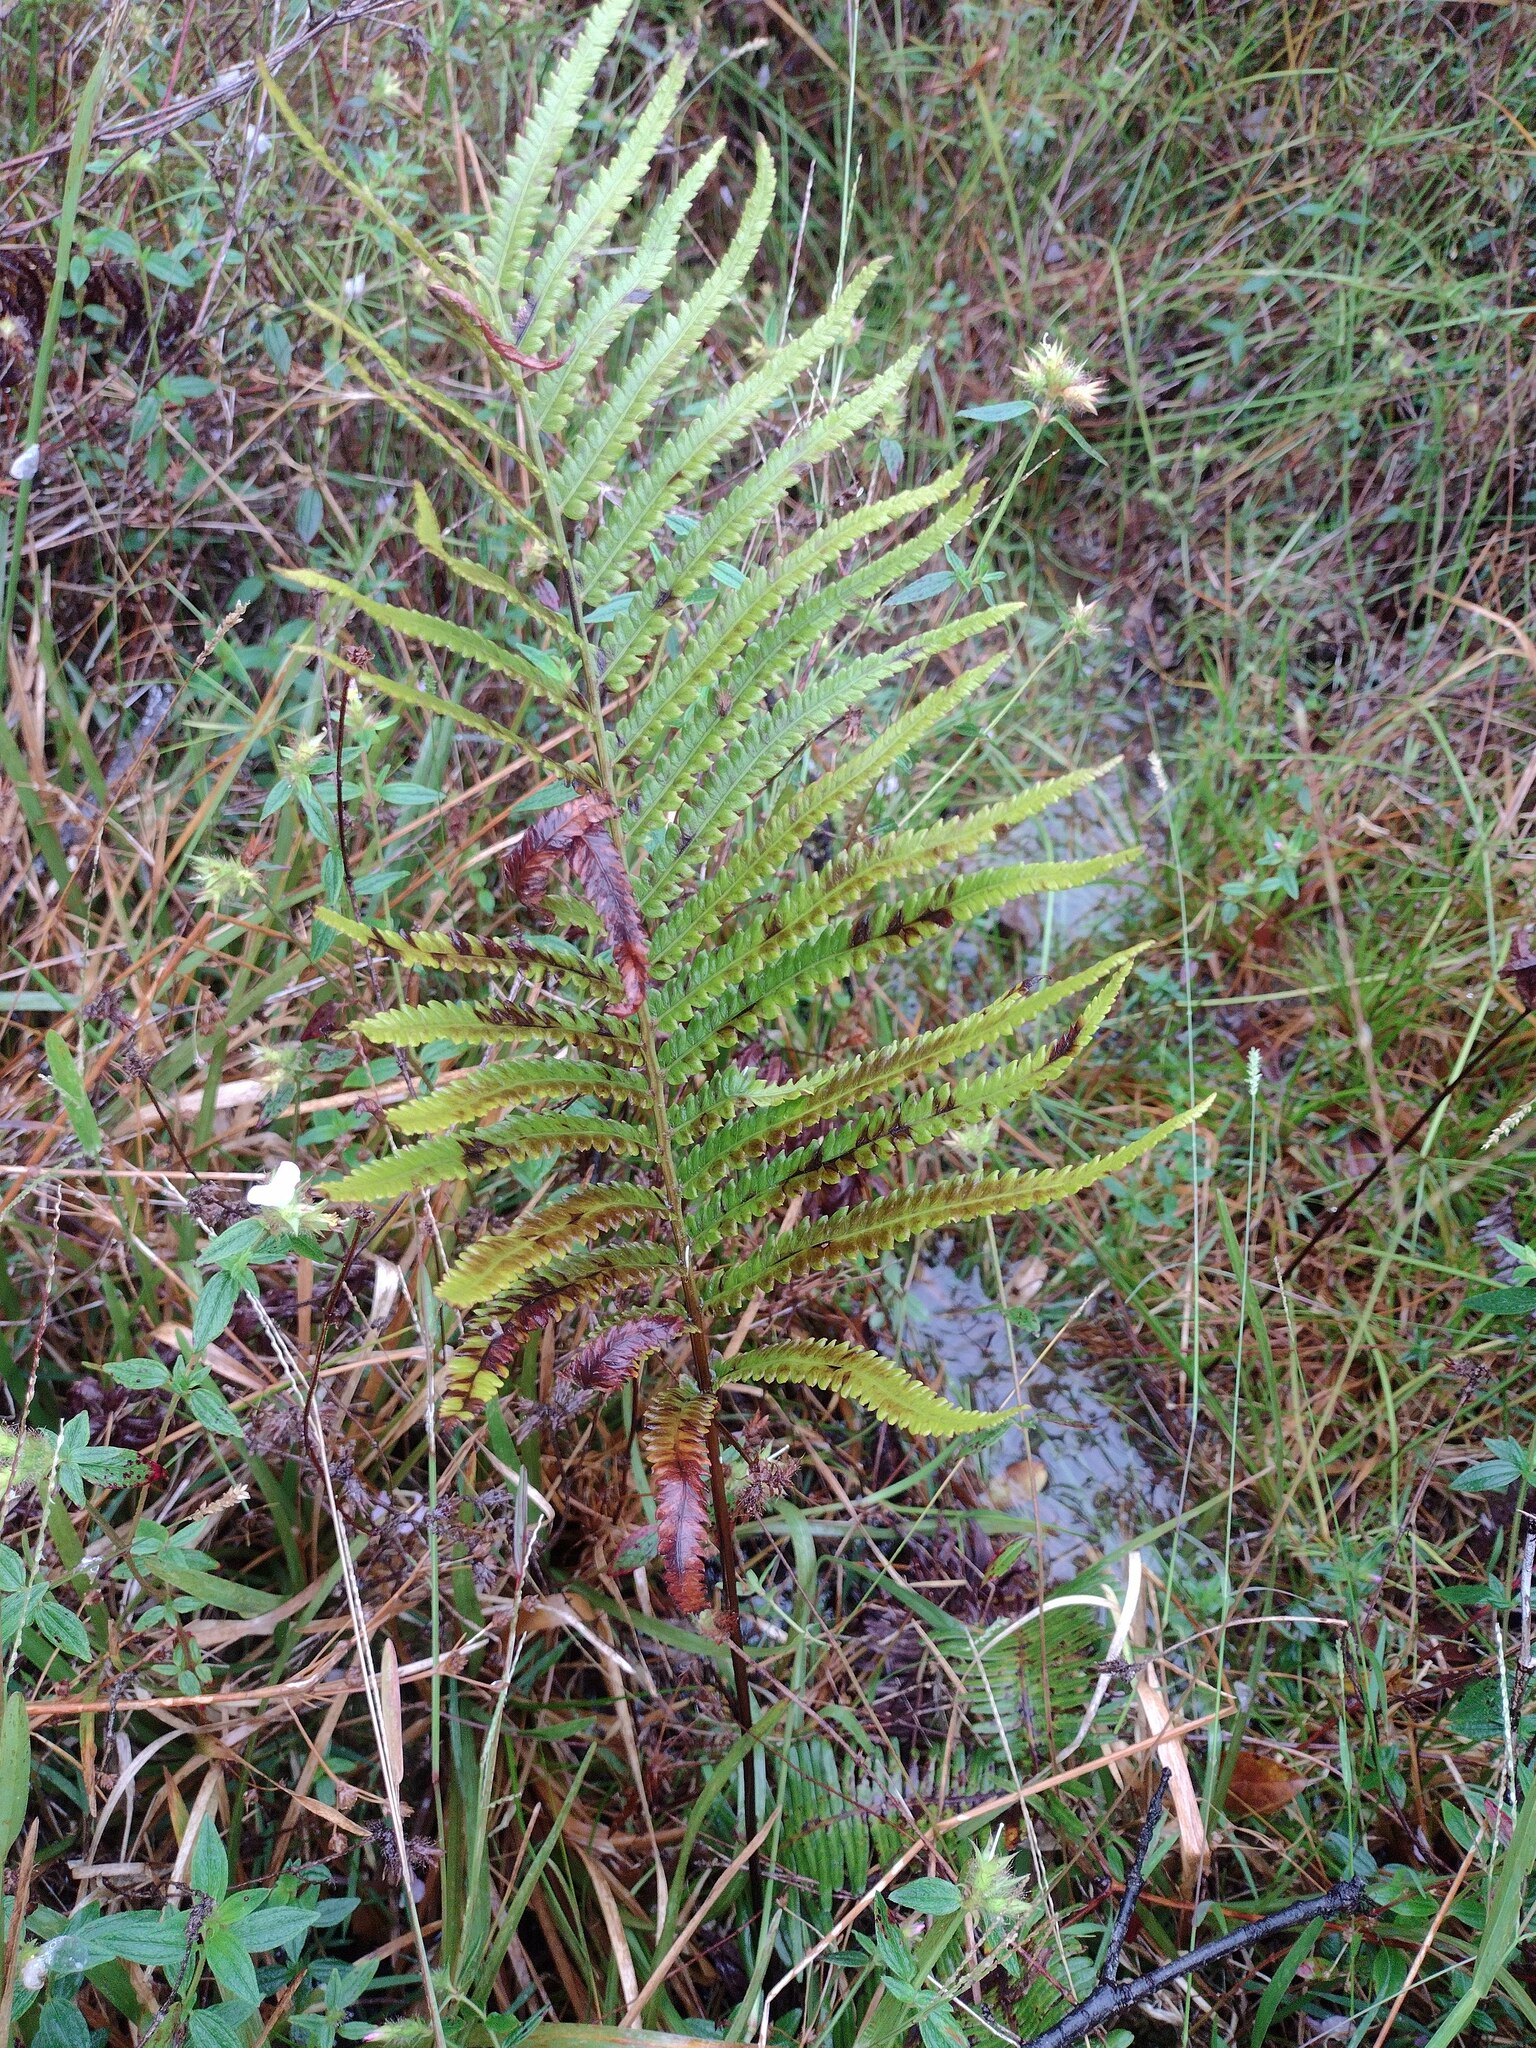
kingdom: Plantae
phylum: Tracheophyta
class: Polypodiopsida
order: Polypodiales
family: Thelypteridaceae
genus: Cyclosorus
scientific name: Cyclosorus interruptus
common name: Neke fern
